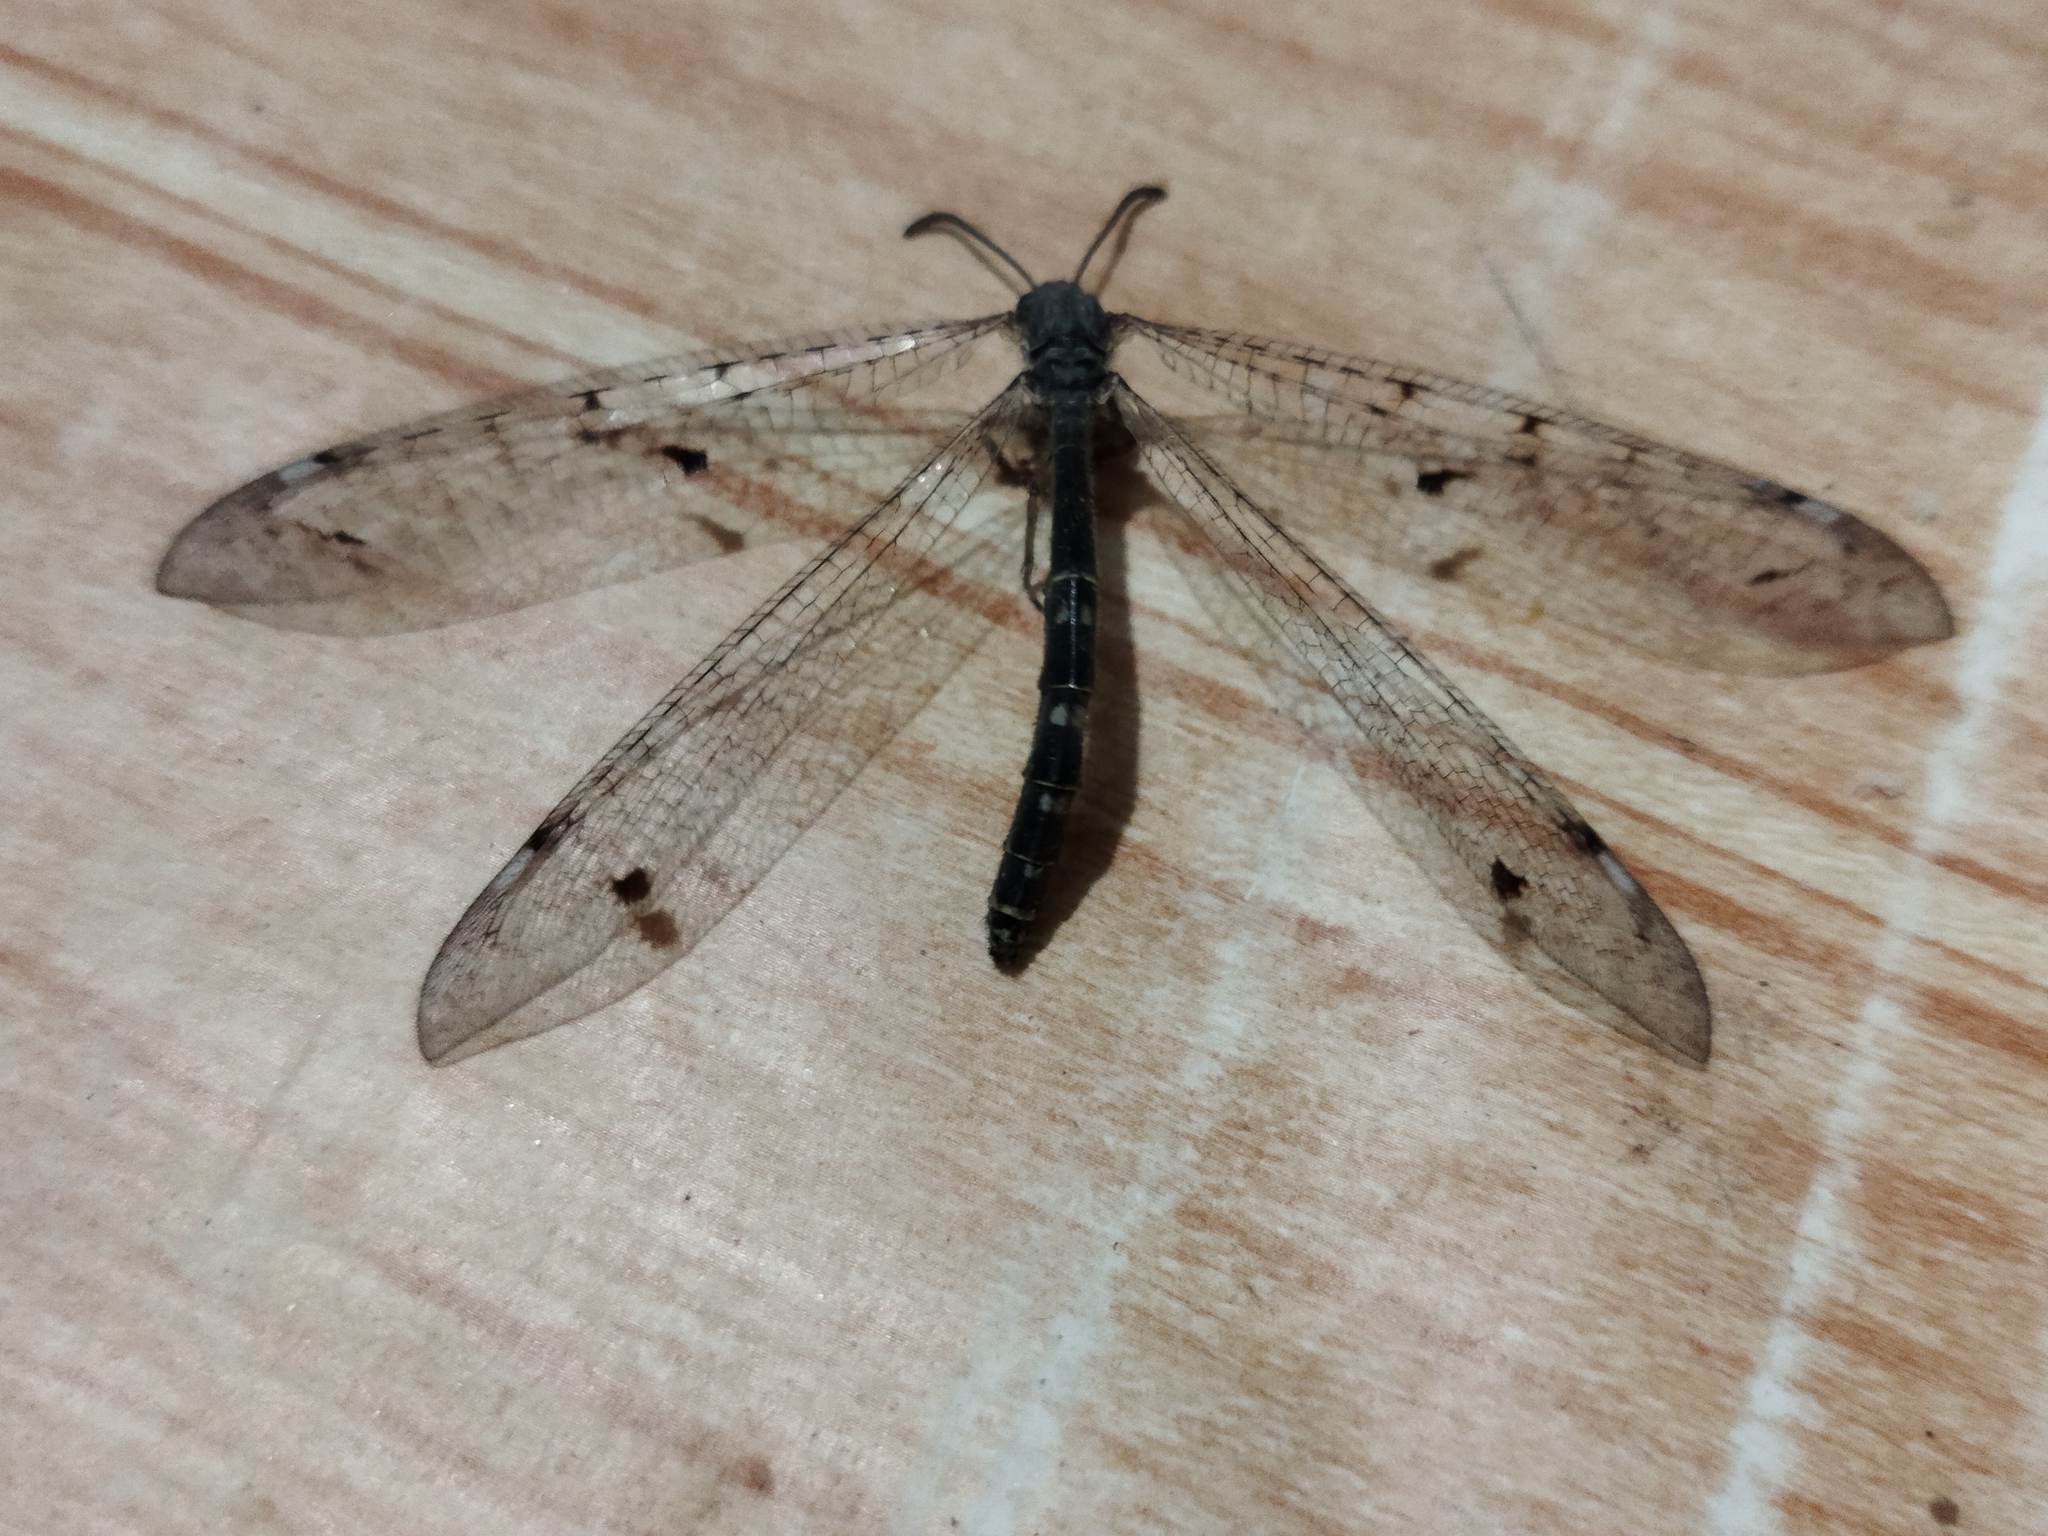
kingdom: Animalia
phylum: Arthropoda
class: Insecta
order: Neuroptera
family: Myrmeleontidae
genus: Distoleon
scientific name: Distoleon tetragrammicus
